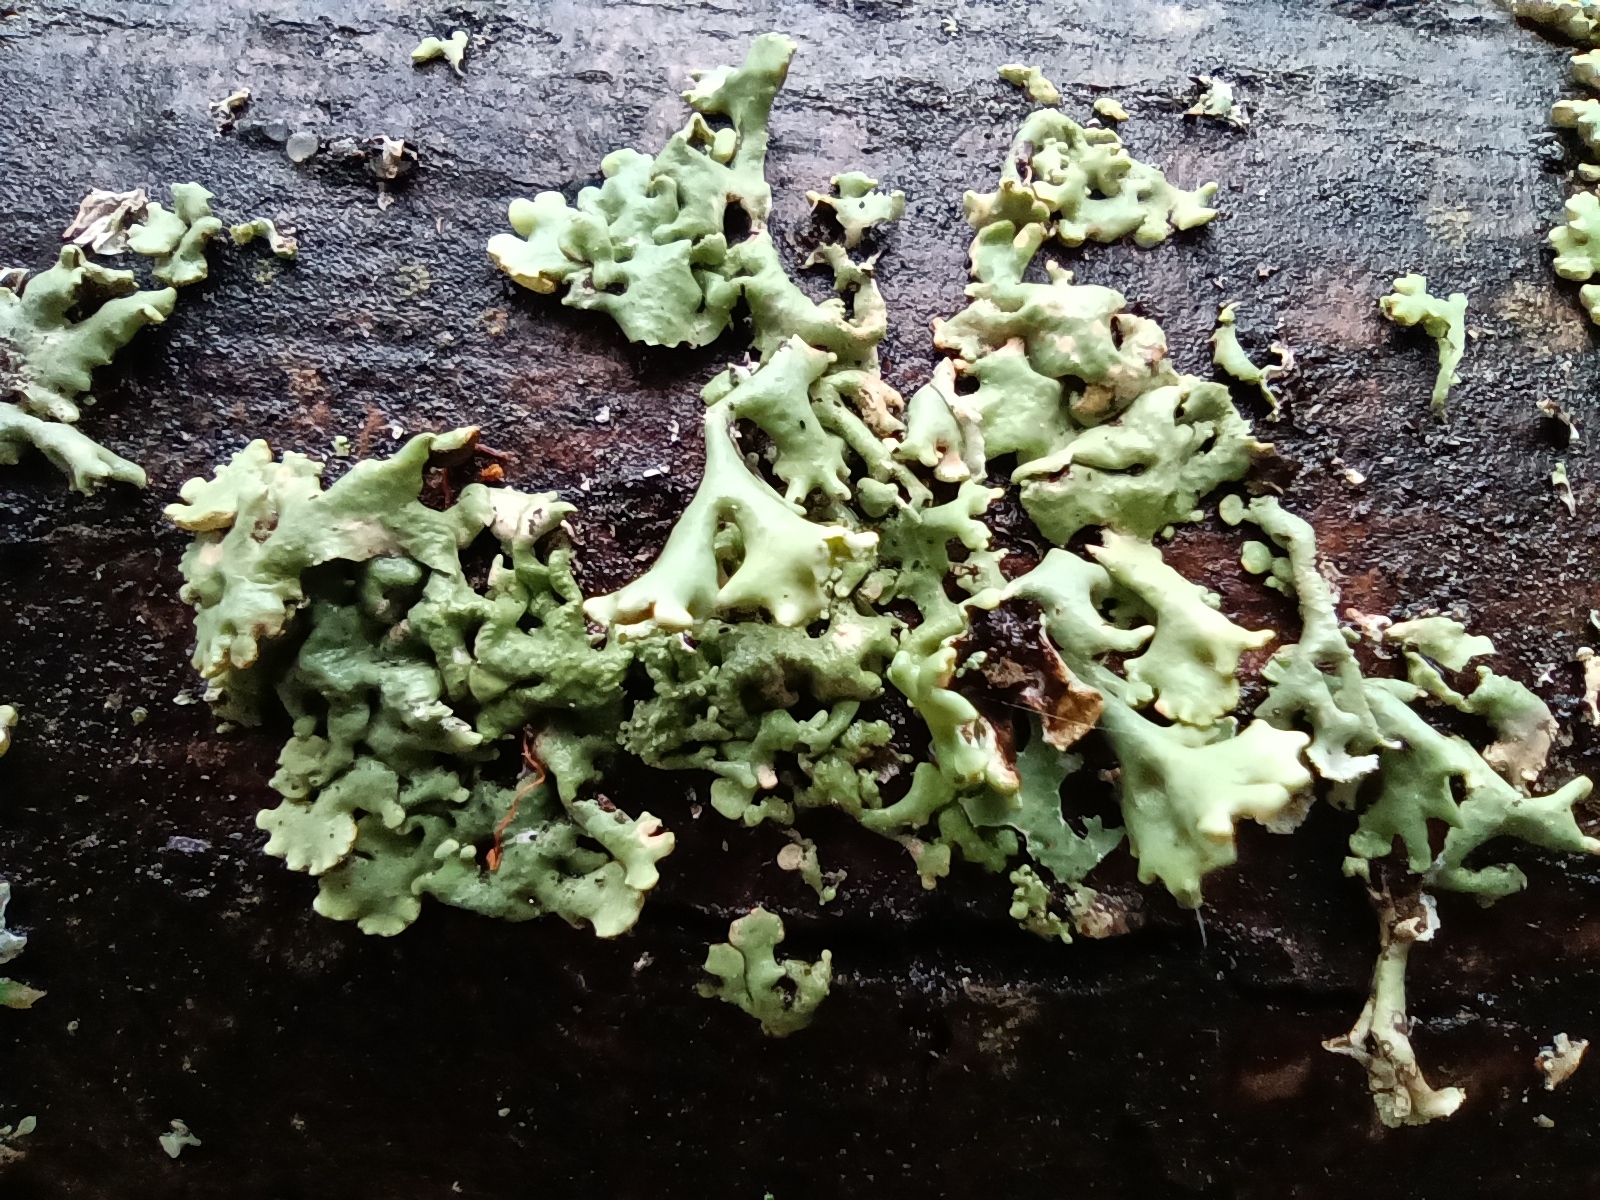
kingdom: Fungi
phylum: Ascomycota
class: Lecanoromycetes
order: Lecanorales
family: Parmeliaceae
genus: Hypogymnia
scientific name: Hypogymnia physodes
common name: Dark crottle
